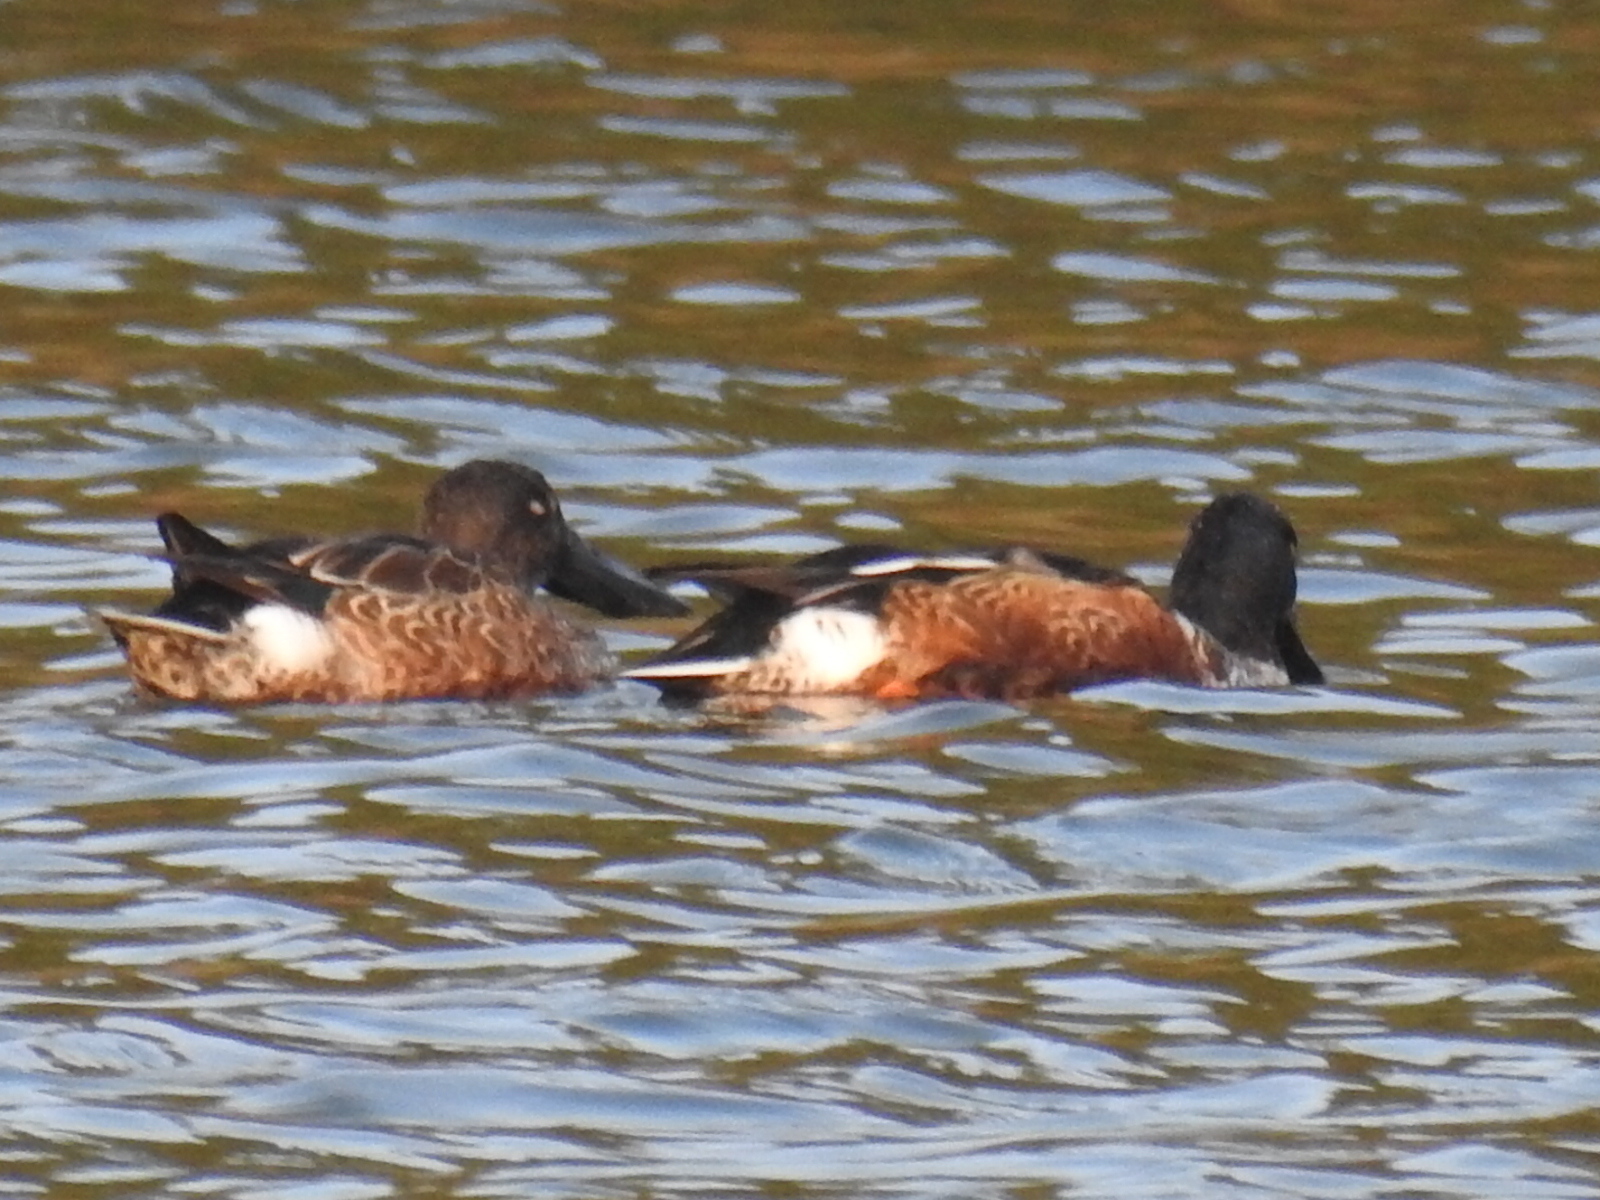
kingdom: Animalia
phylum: Chordata
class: Aves
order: Anseriformes
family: Anatidae
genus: Spatula
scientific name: Spatula clypeata
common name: Northern shoveler
